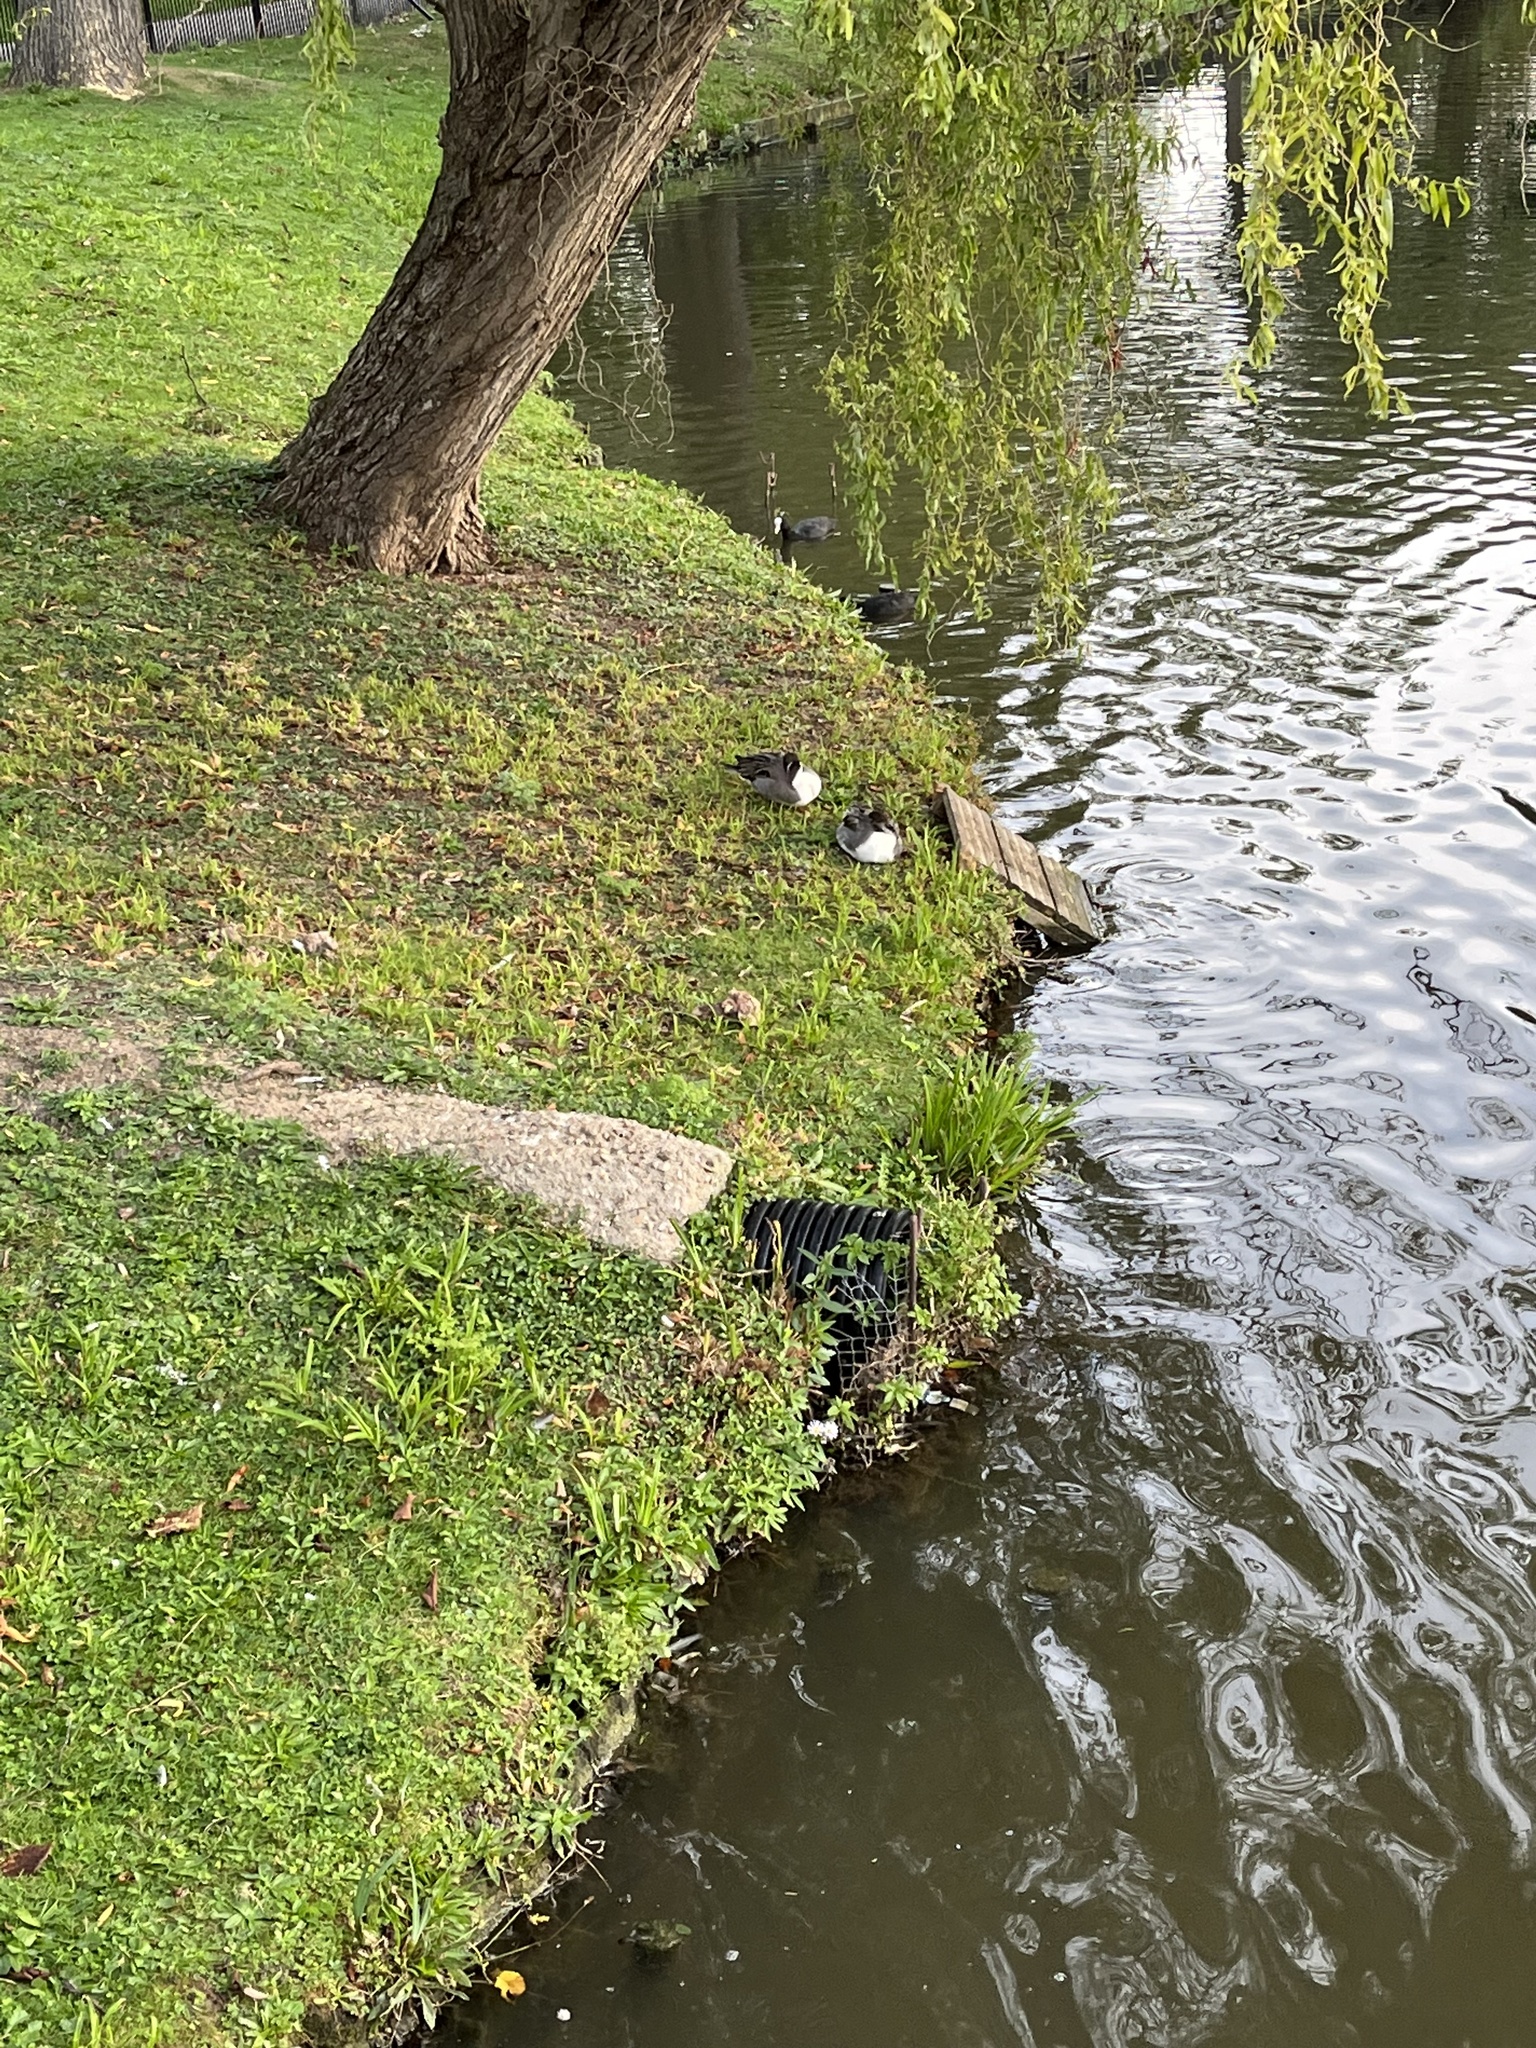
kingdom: Animalia
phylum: Chordata
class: Aves
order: Anseriformes
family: Anatidae
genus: Anas
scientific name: Anas acuta
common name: Northern pintail
